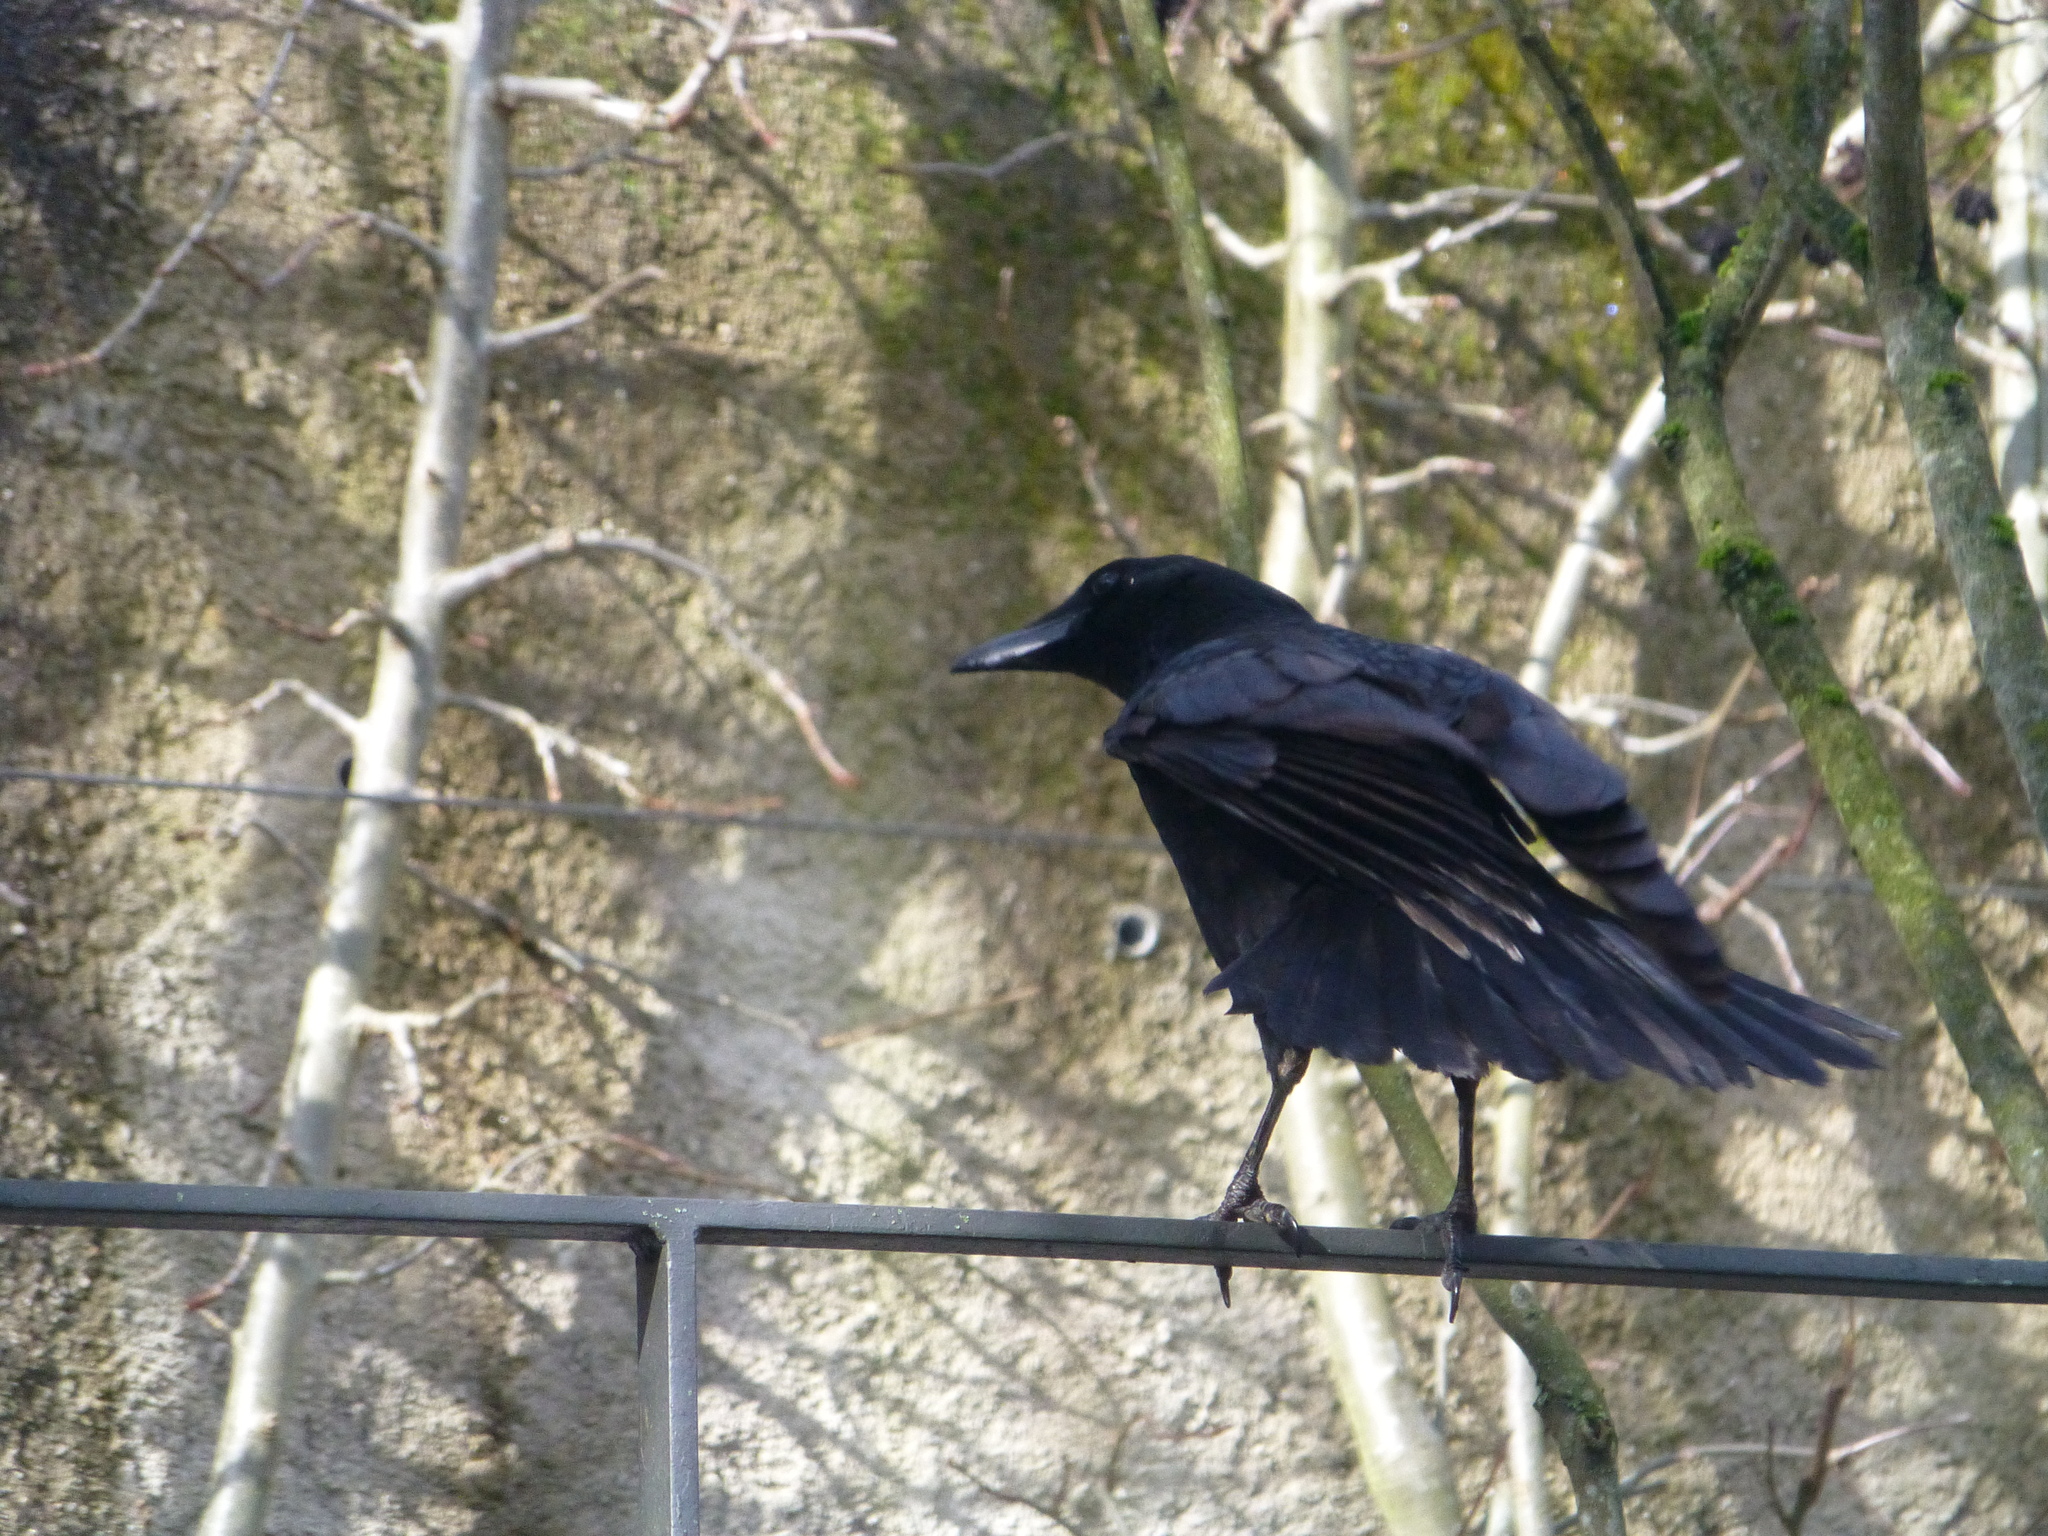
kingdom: Animalia
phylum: Chordata
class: Aves
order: Passeriformes
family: Corvidae
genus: Corvus
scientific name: Corvus corone
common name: Carrion crow
